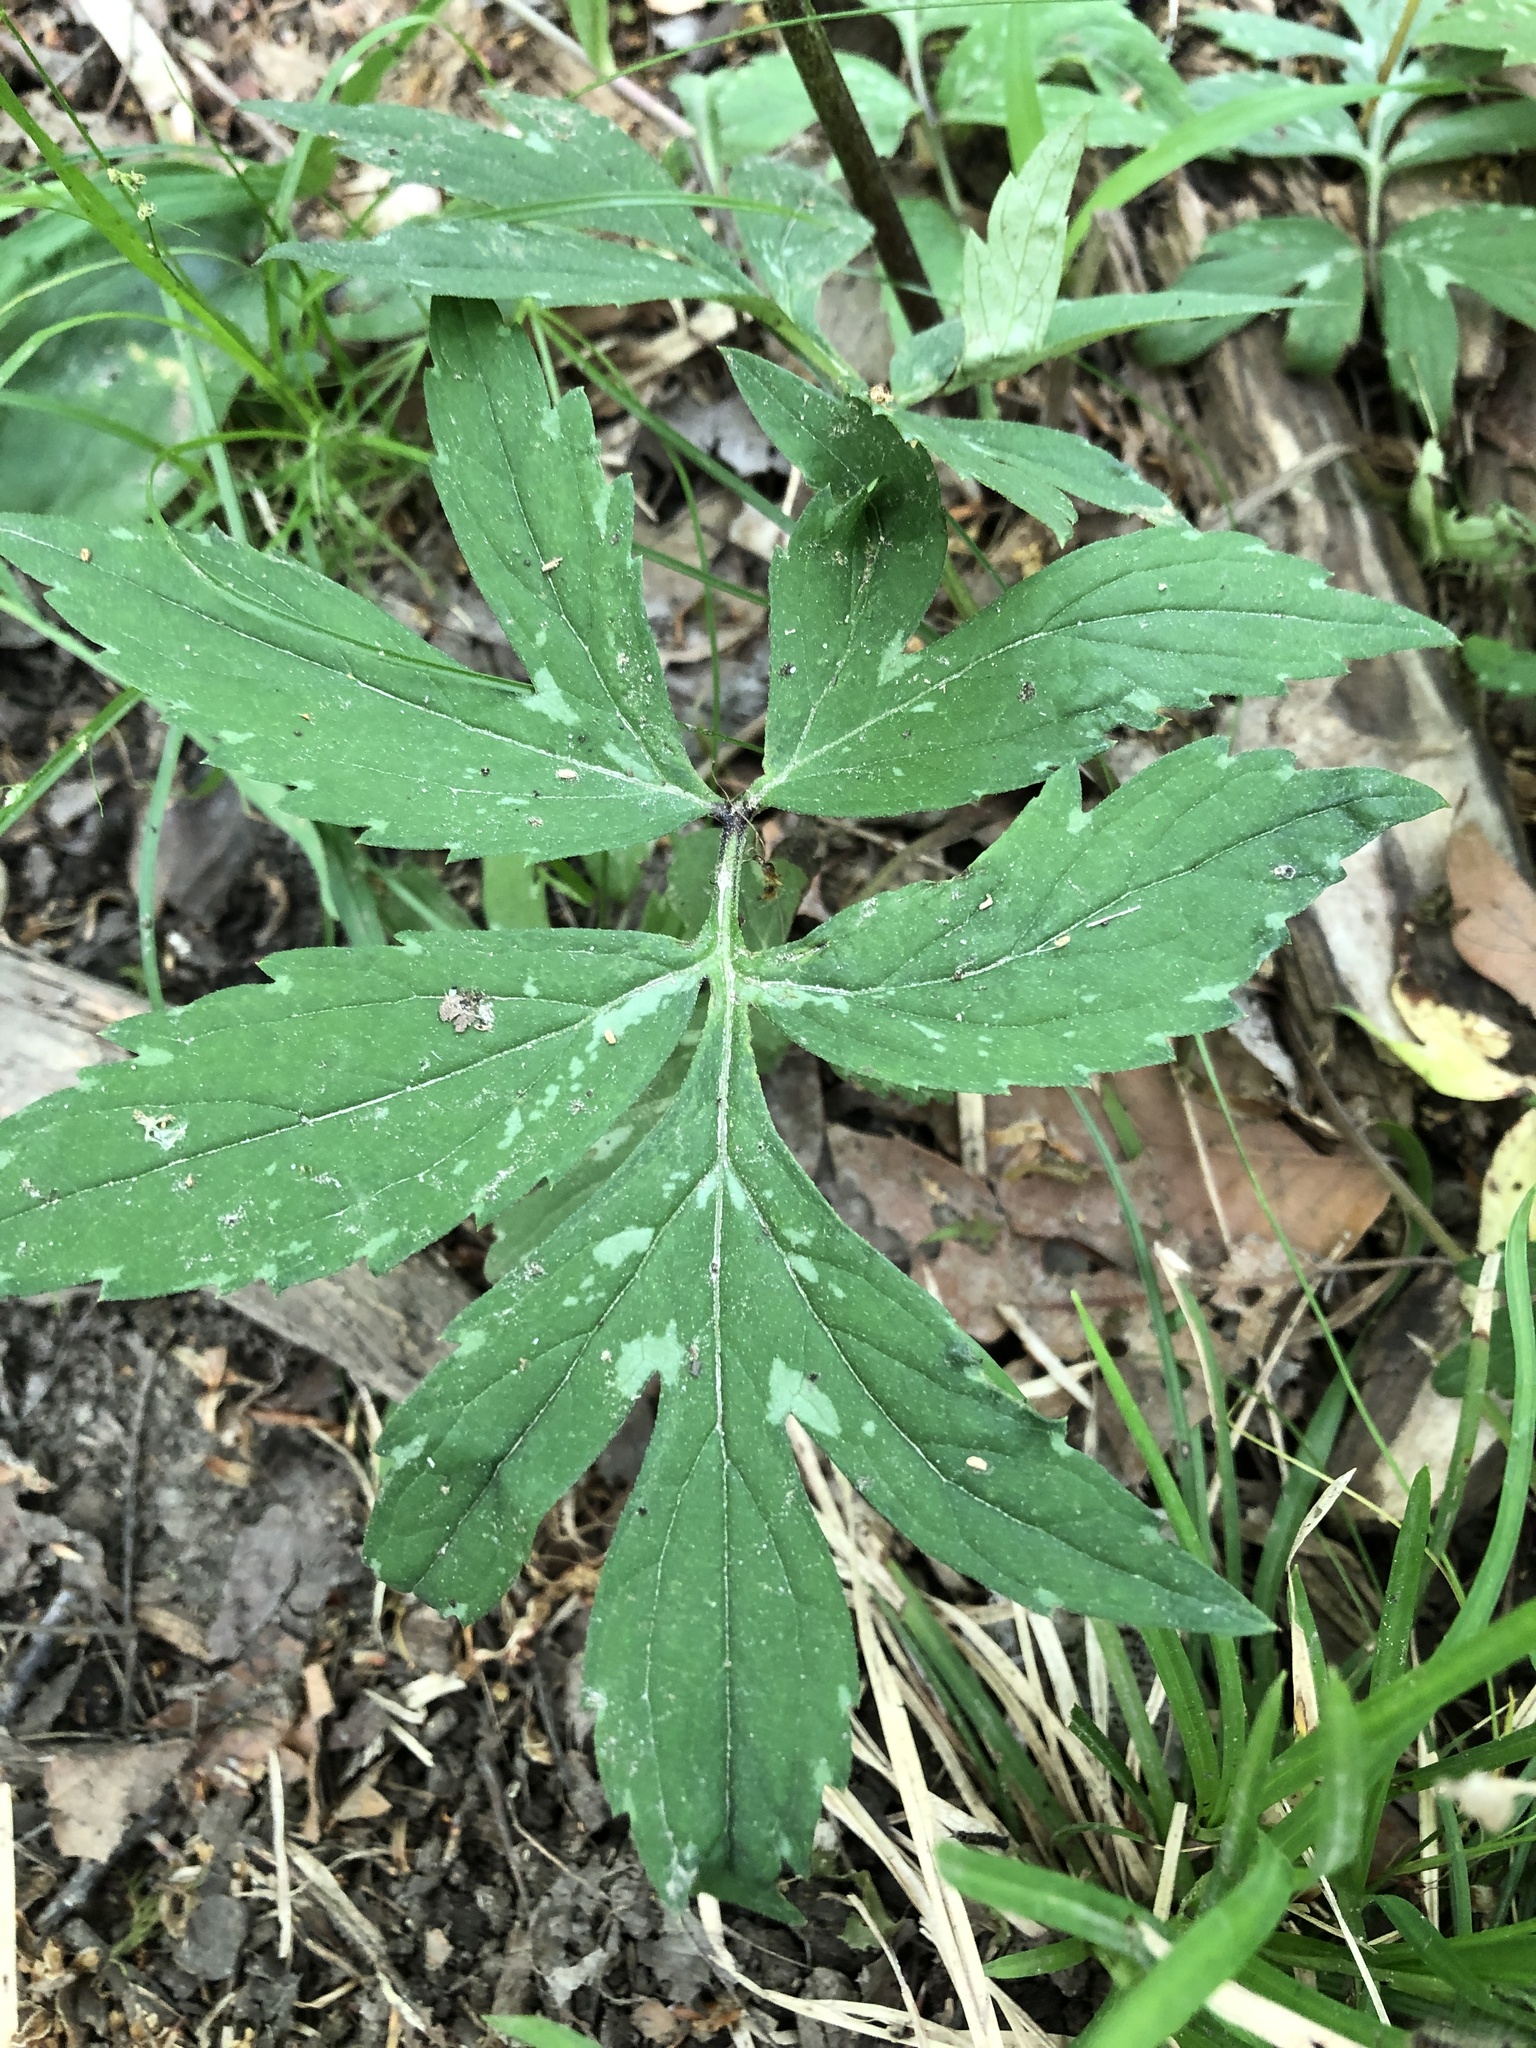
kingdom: Plantae
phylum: Tracheophyta
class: Magnoliopsida
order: Boraginales
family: Hydrophyllaceae
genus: Hydrophyllum
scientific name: Hydrophyllum virginianum
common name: Virginia waterleaf
